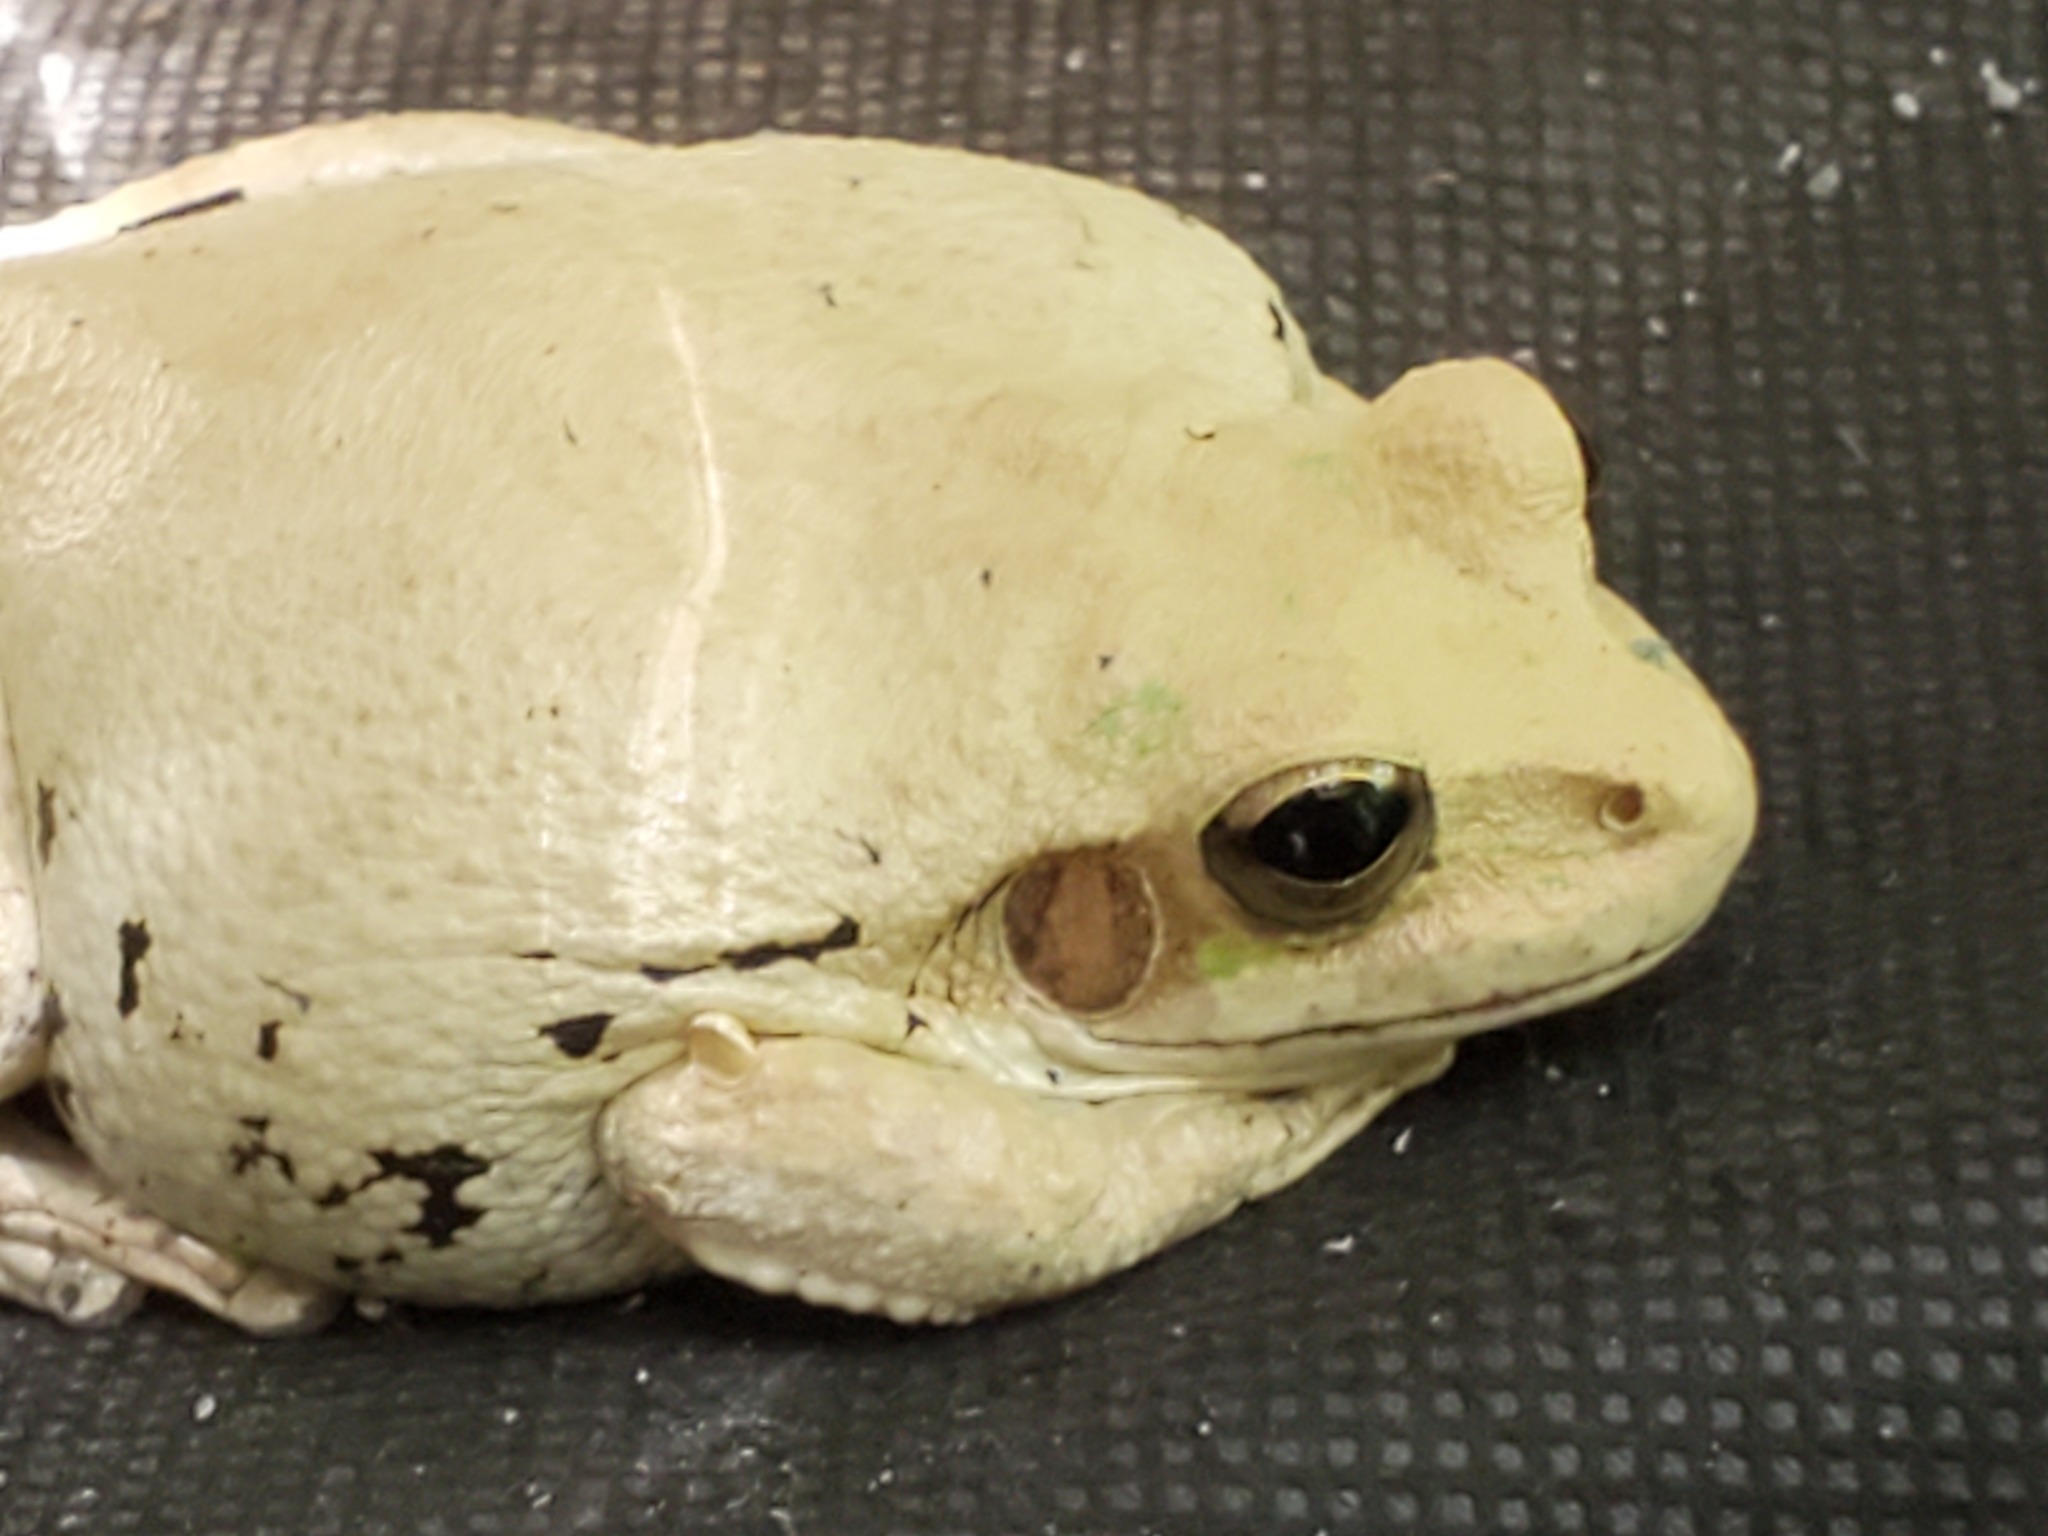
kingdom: Animalia
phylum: Chordata
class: Amphibia
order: Anura
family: Hylidae
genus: Smilisca
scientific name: Smilisca baudinii
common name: Mexican smilisca
